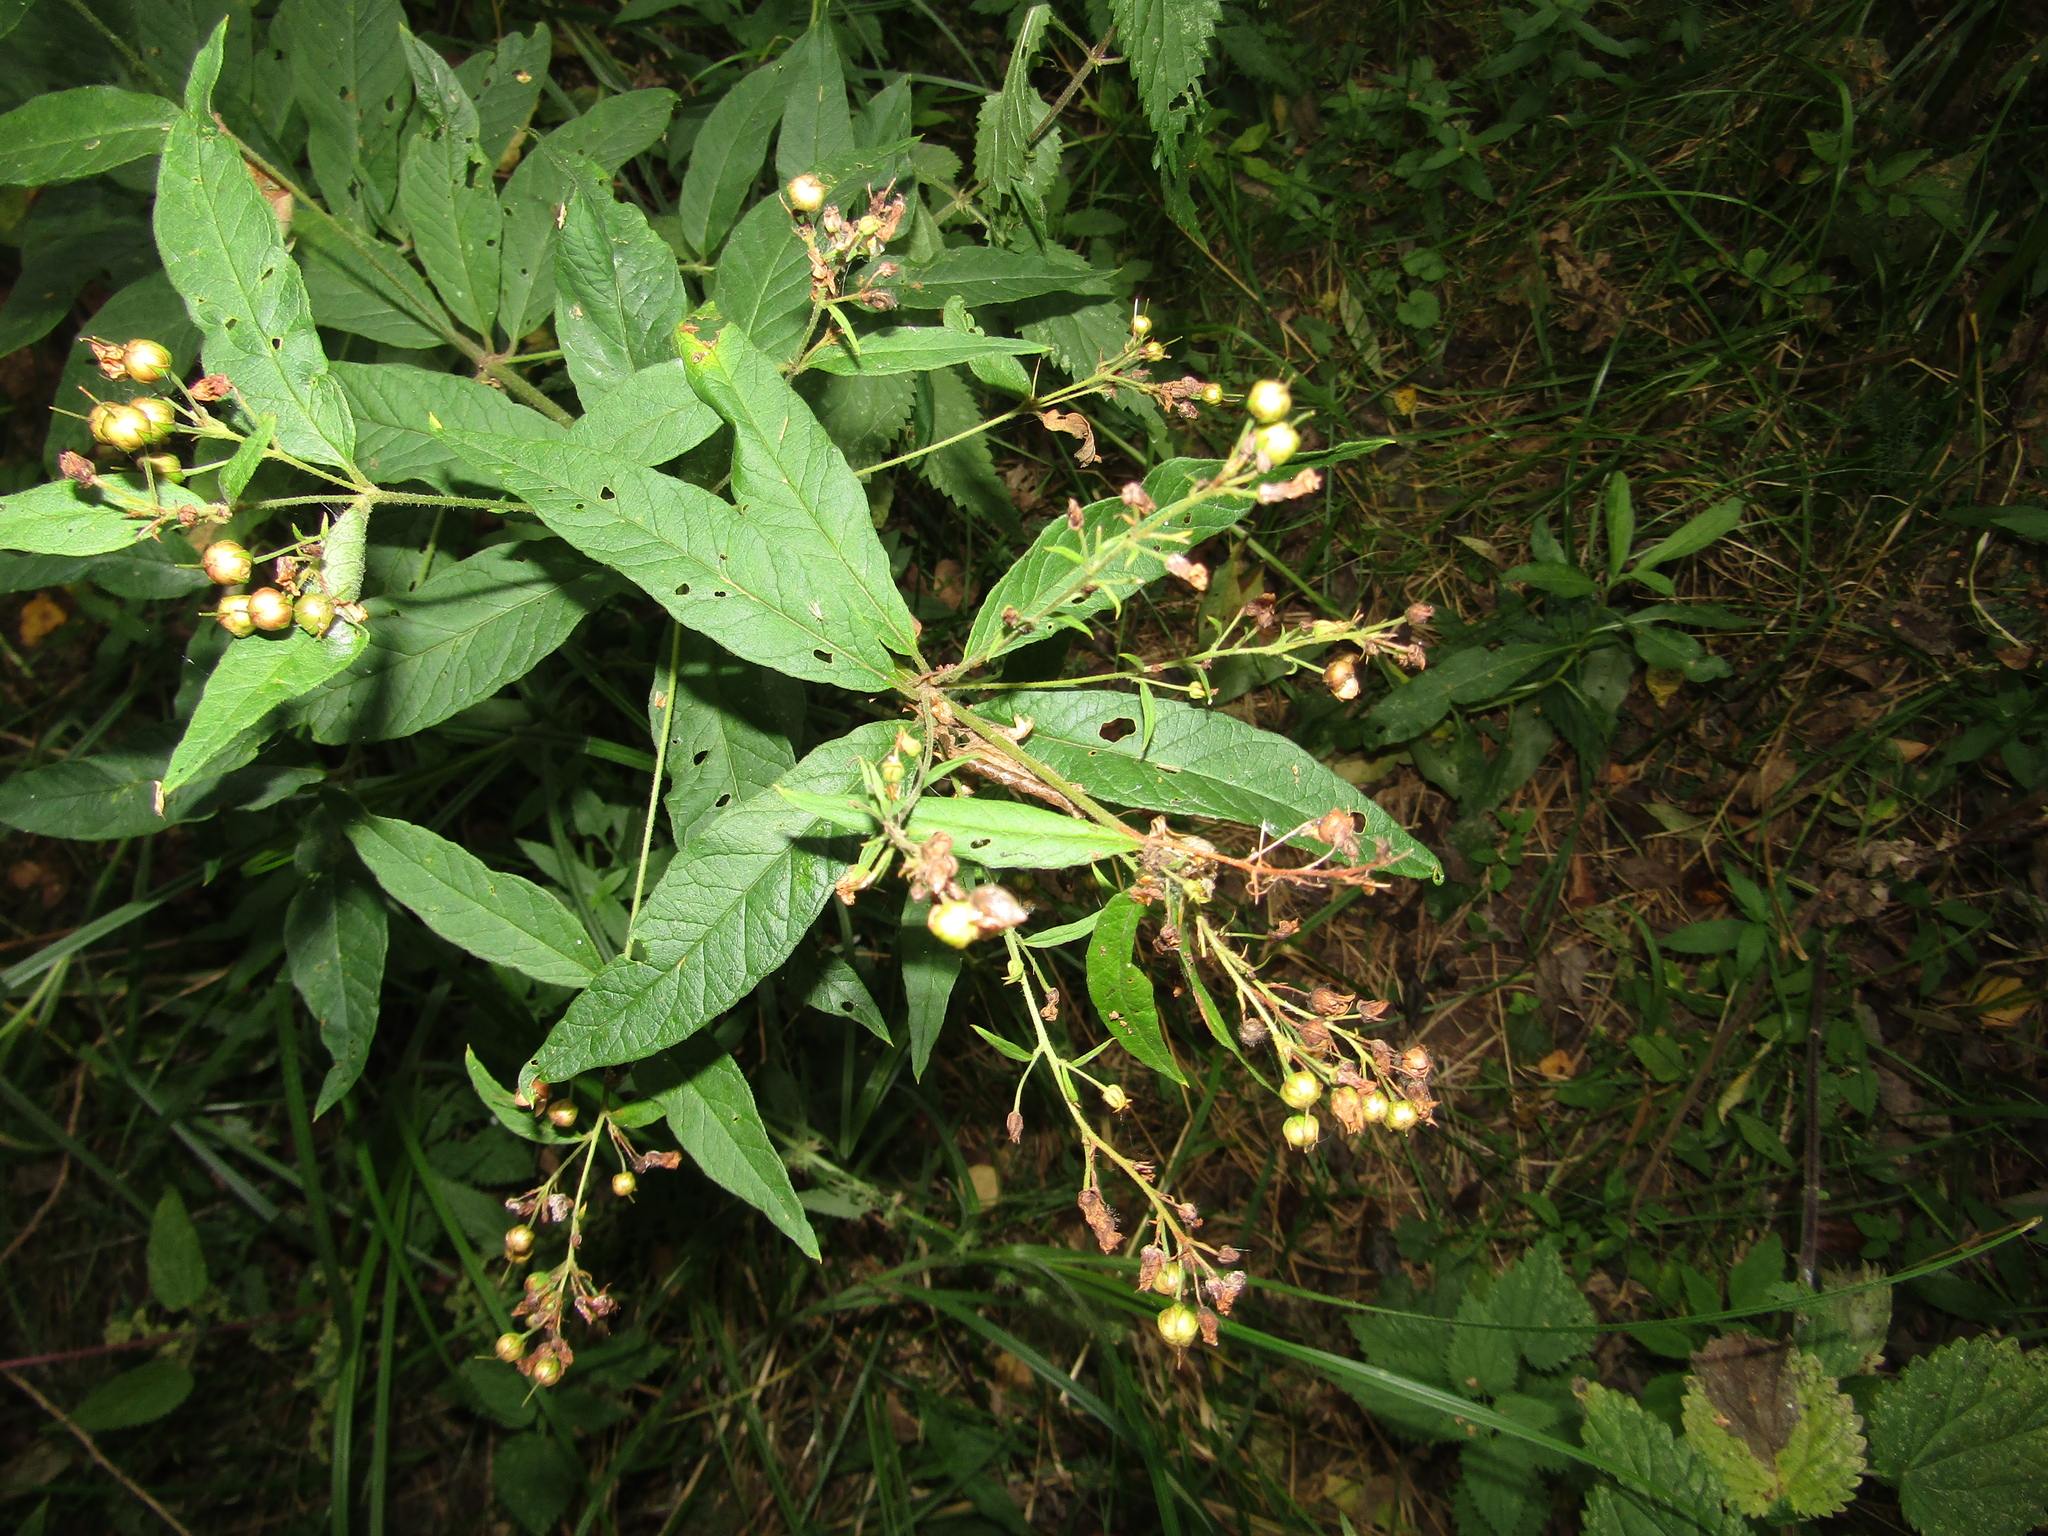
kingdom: Plantae
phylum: Tracheophyta
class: Magnoliopsida
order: Ericales
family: Primulaceae
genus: Lysimachia
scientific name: Lysimachia vulgaris
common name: Yellow loosestrife
